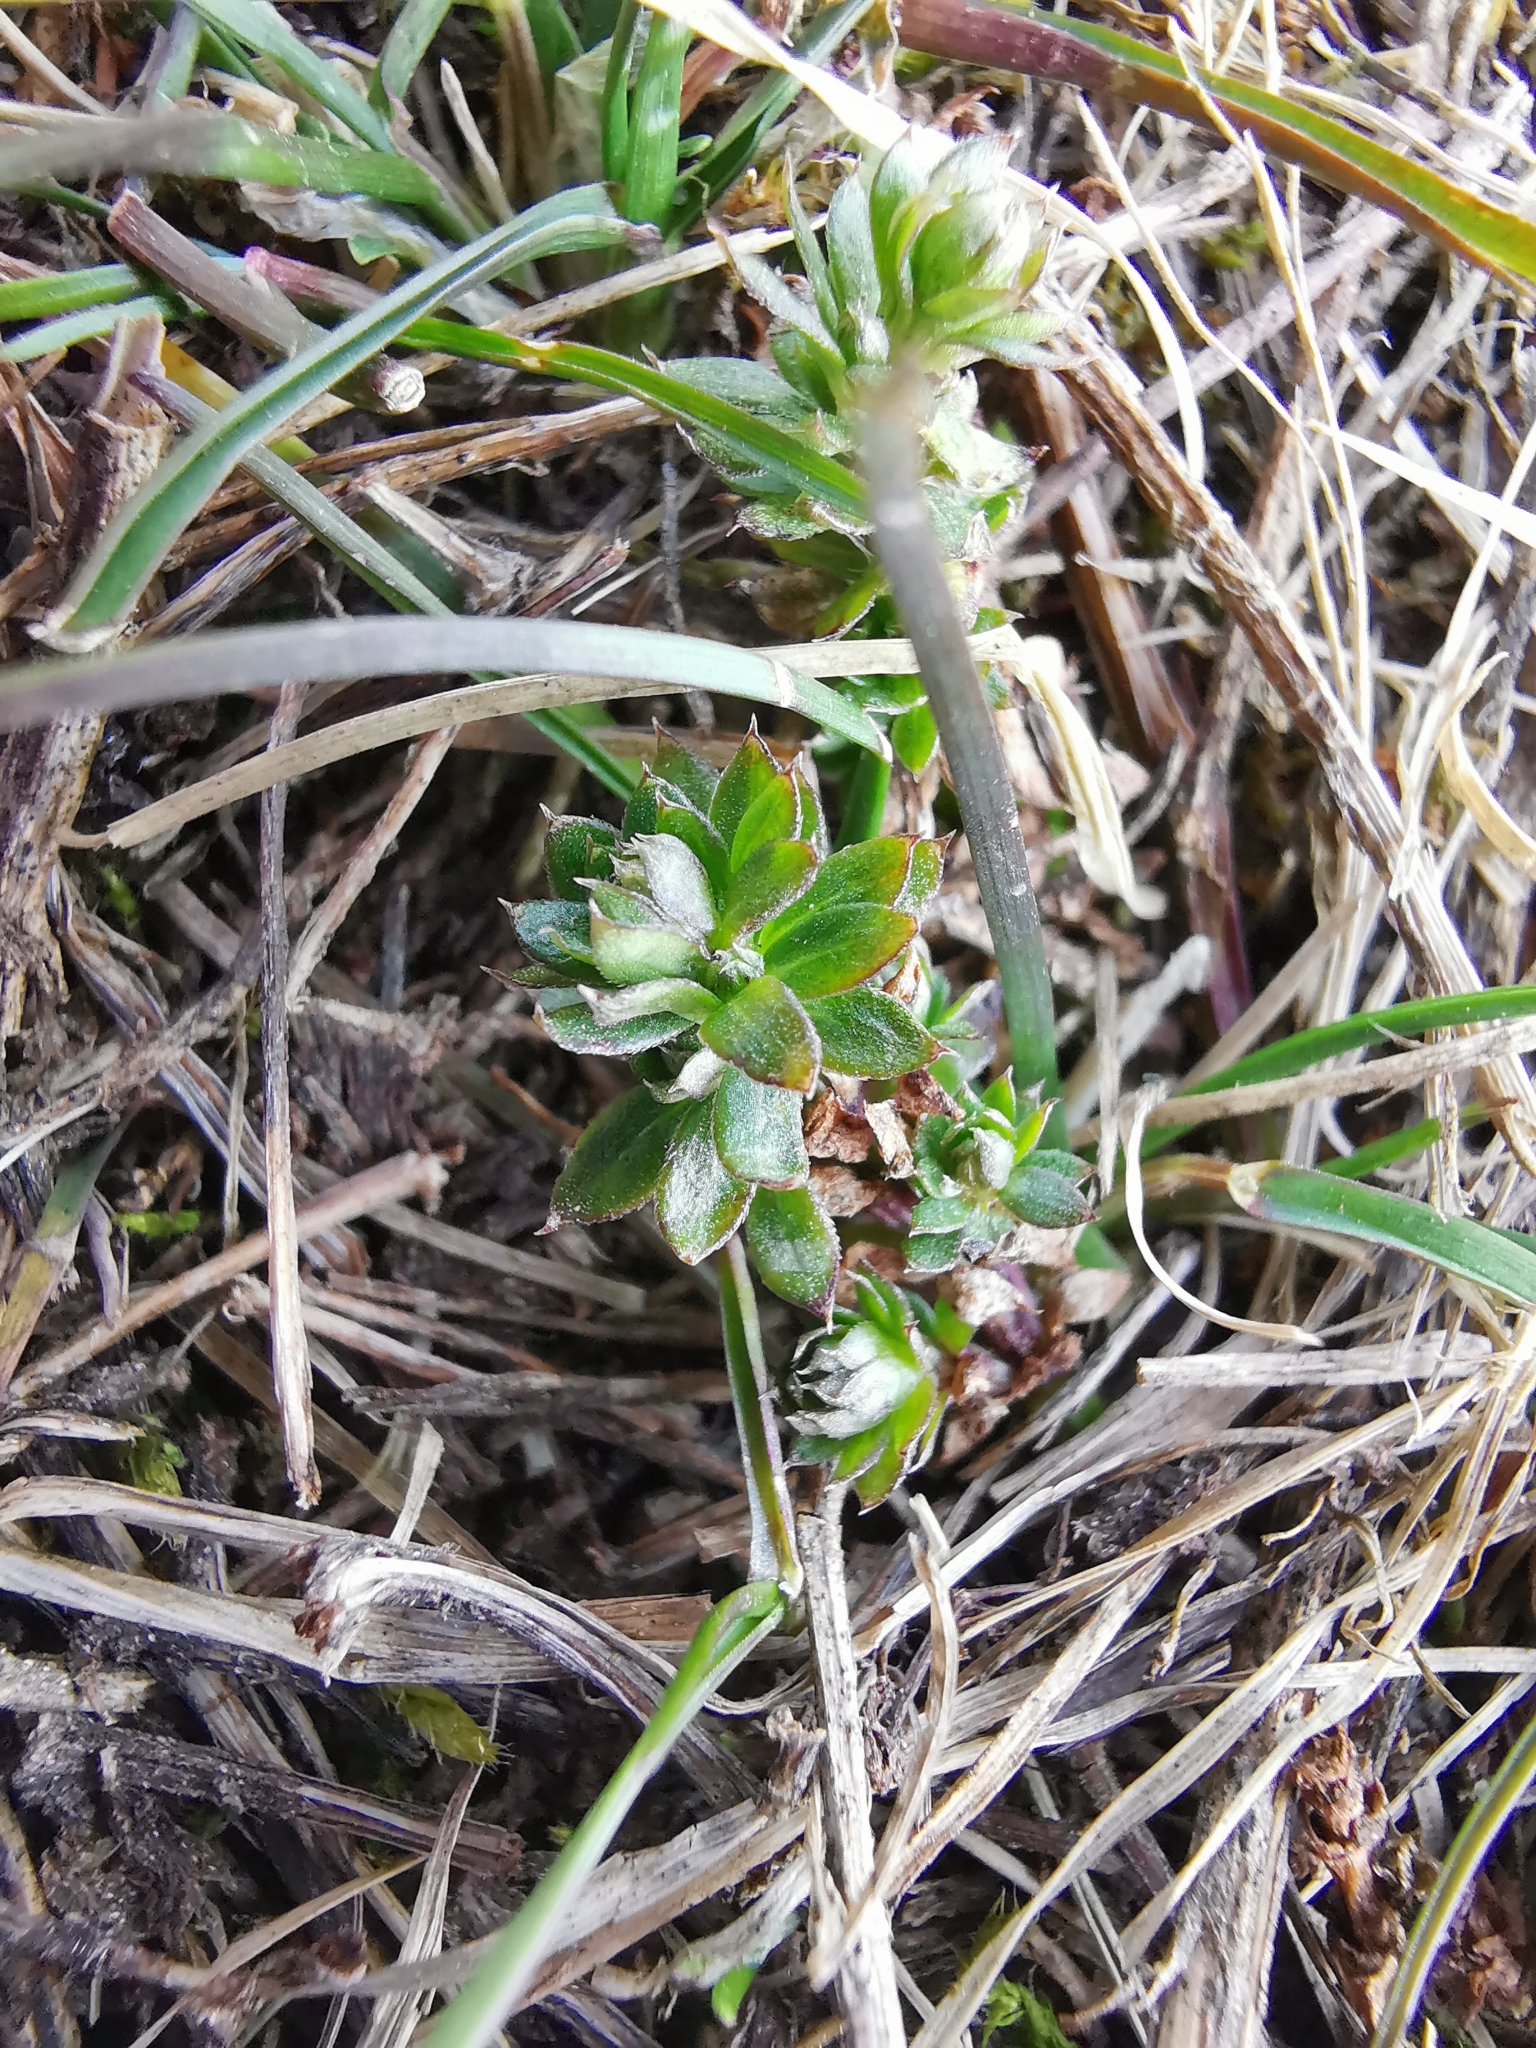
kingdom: Plantae
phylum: Tracheophyta
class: Magnoliopsida
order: Gentianales
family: Rubiaceae
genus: Galium
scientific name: Galium mollugo
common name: Hedge bedstraw
